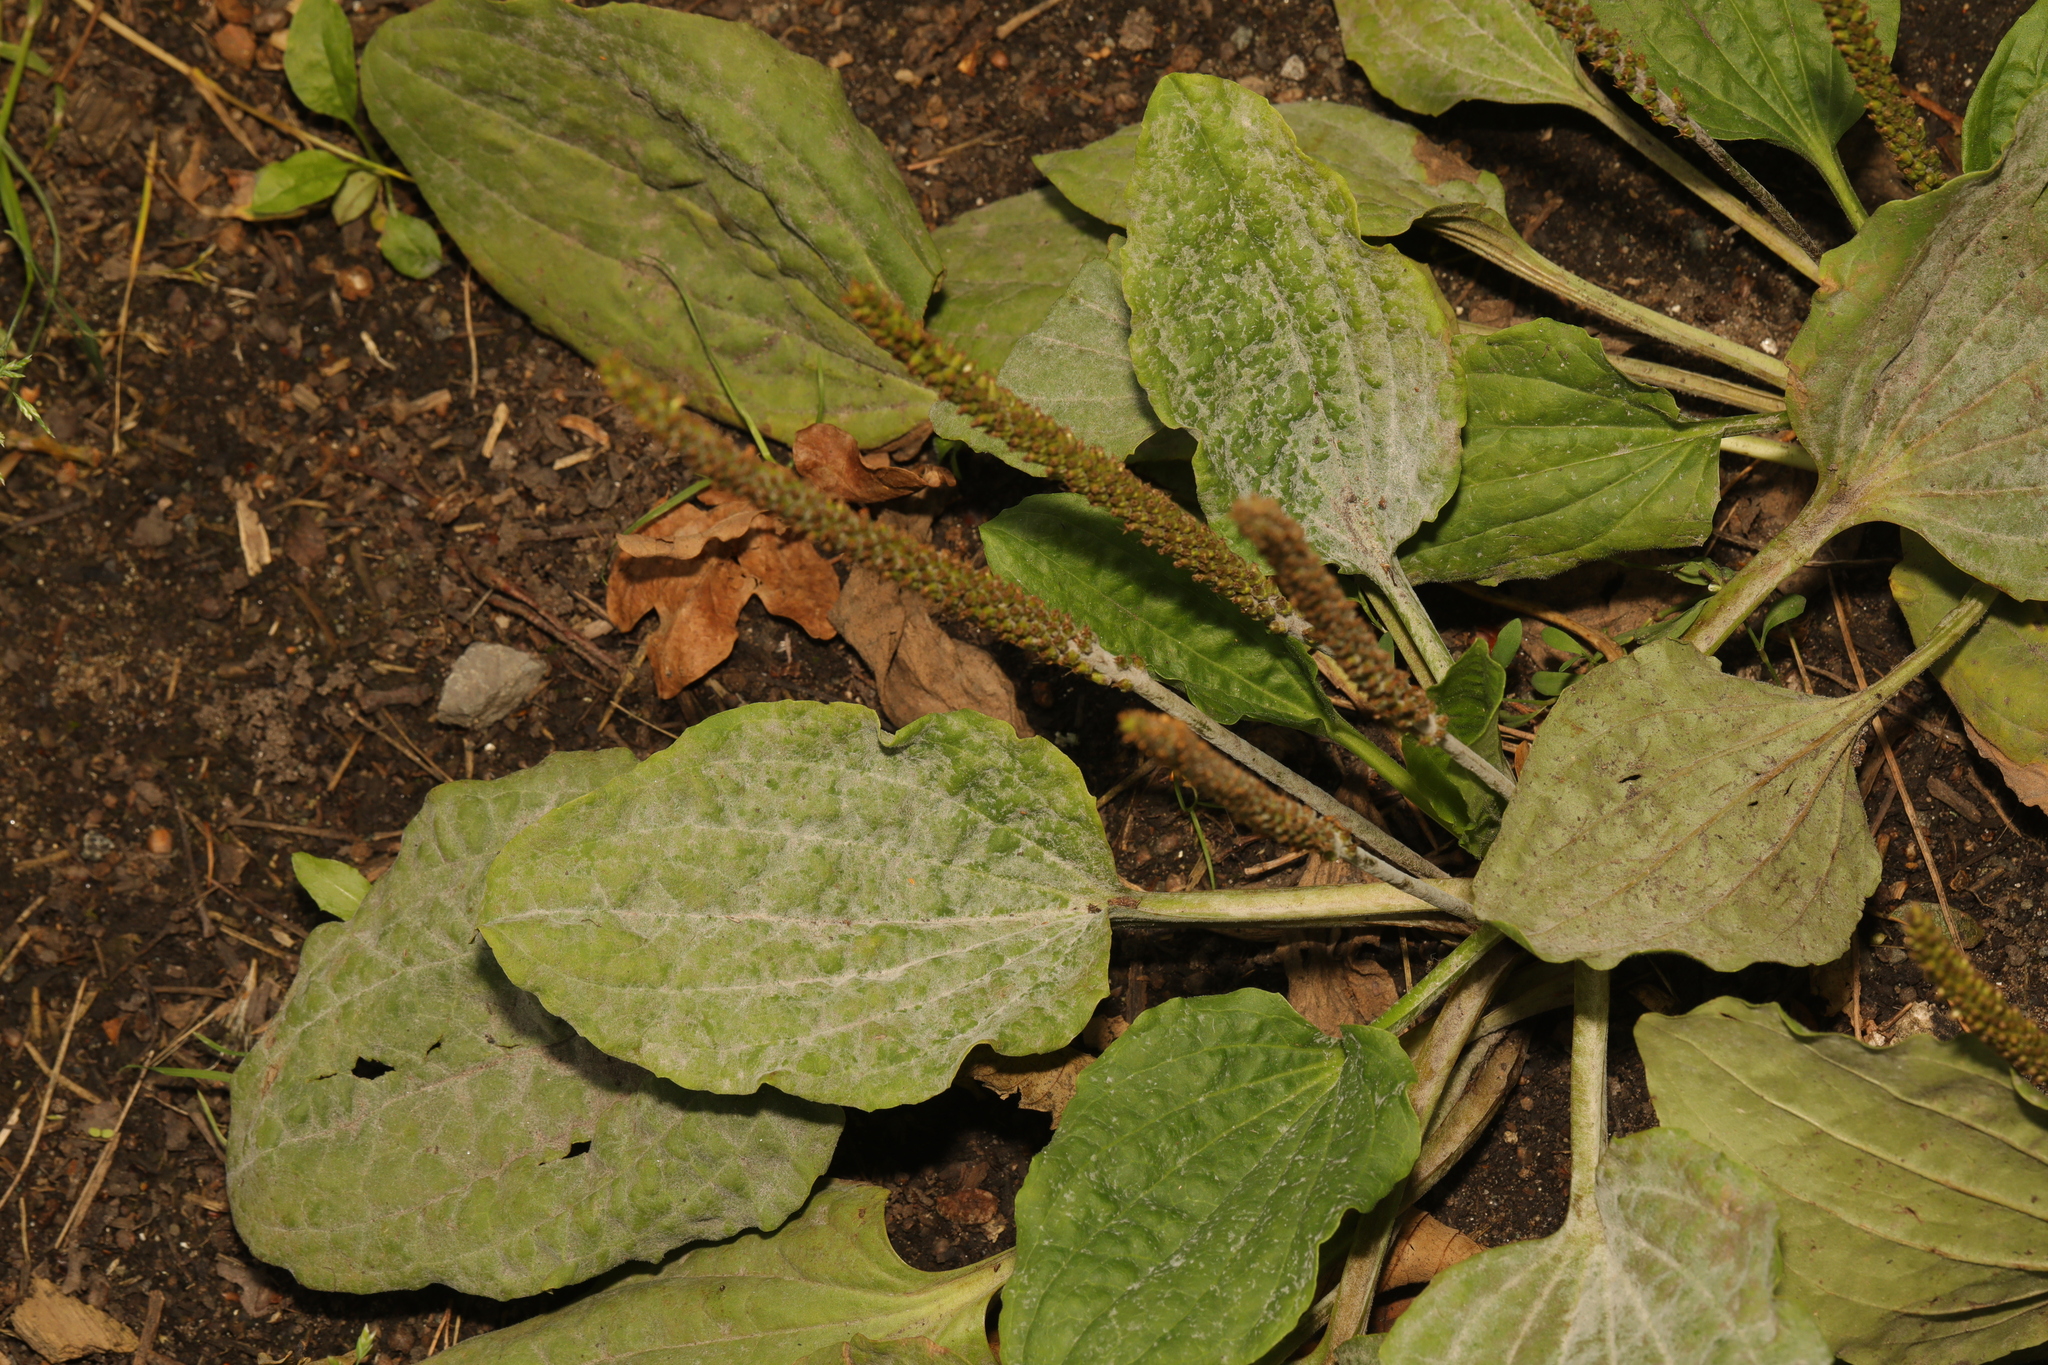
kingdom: Plantae
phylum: Tracheophyta
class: Magnoliopsida
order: Lamiales
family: Plantaginaceae
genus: Plantago
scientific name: Plantago major
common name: Common plantain
